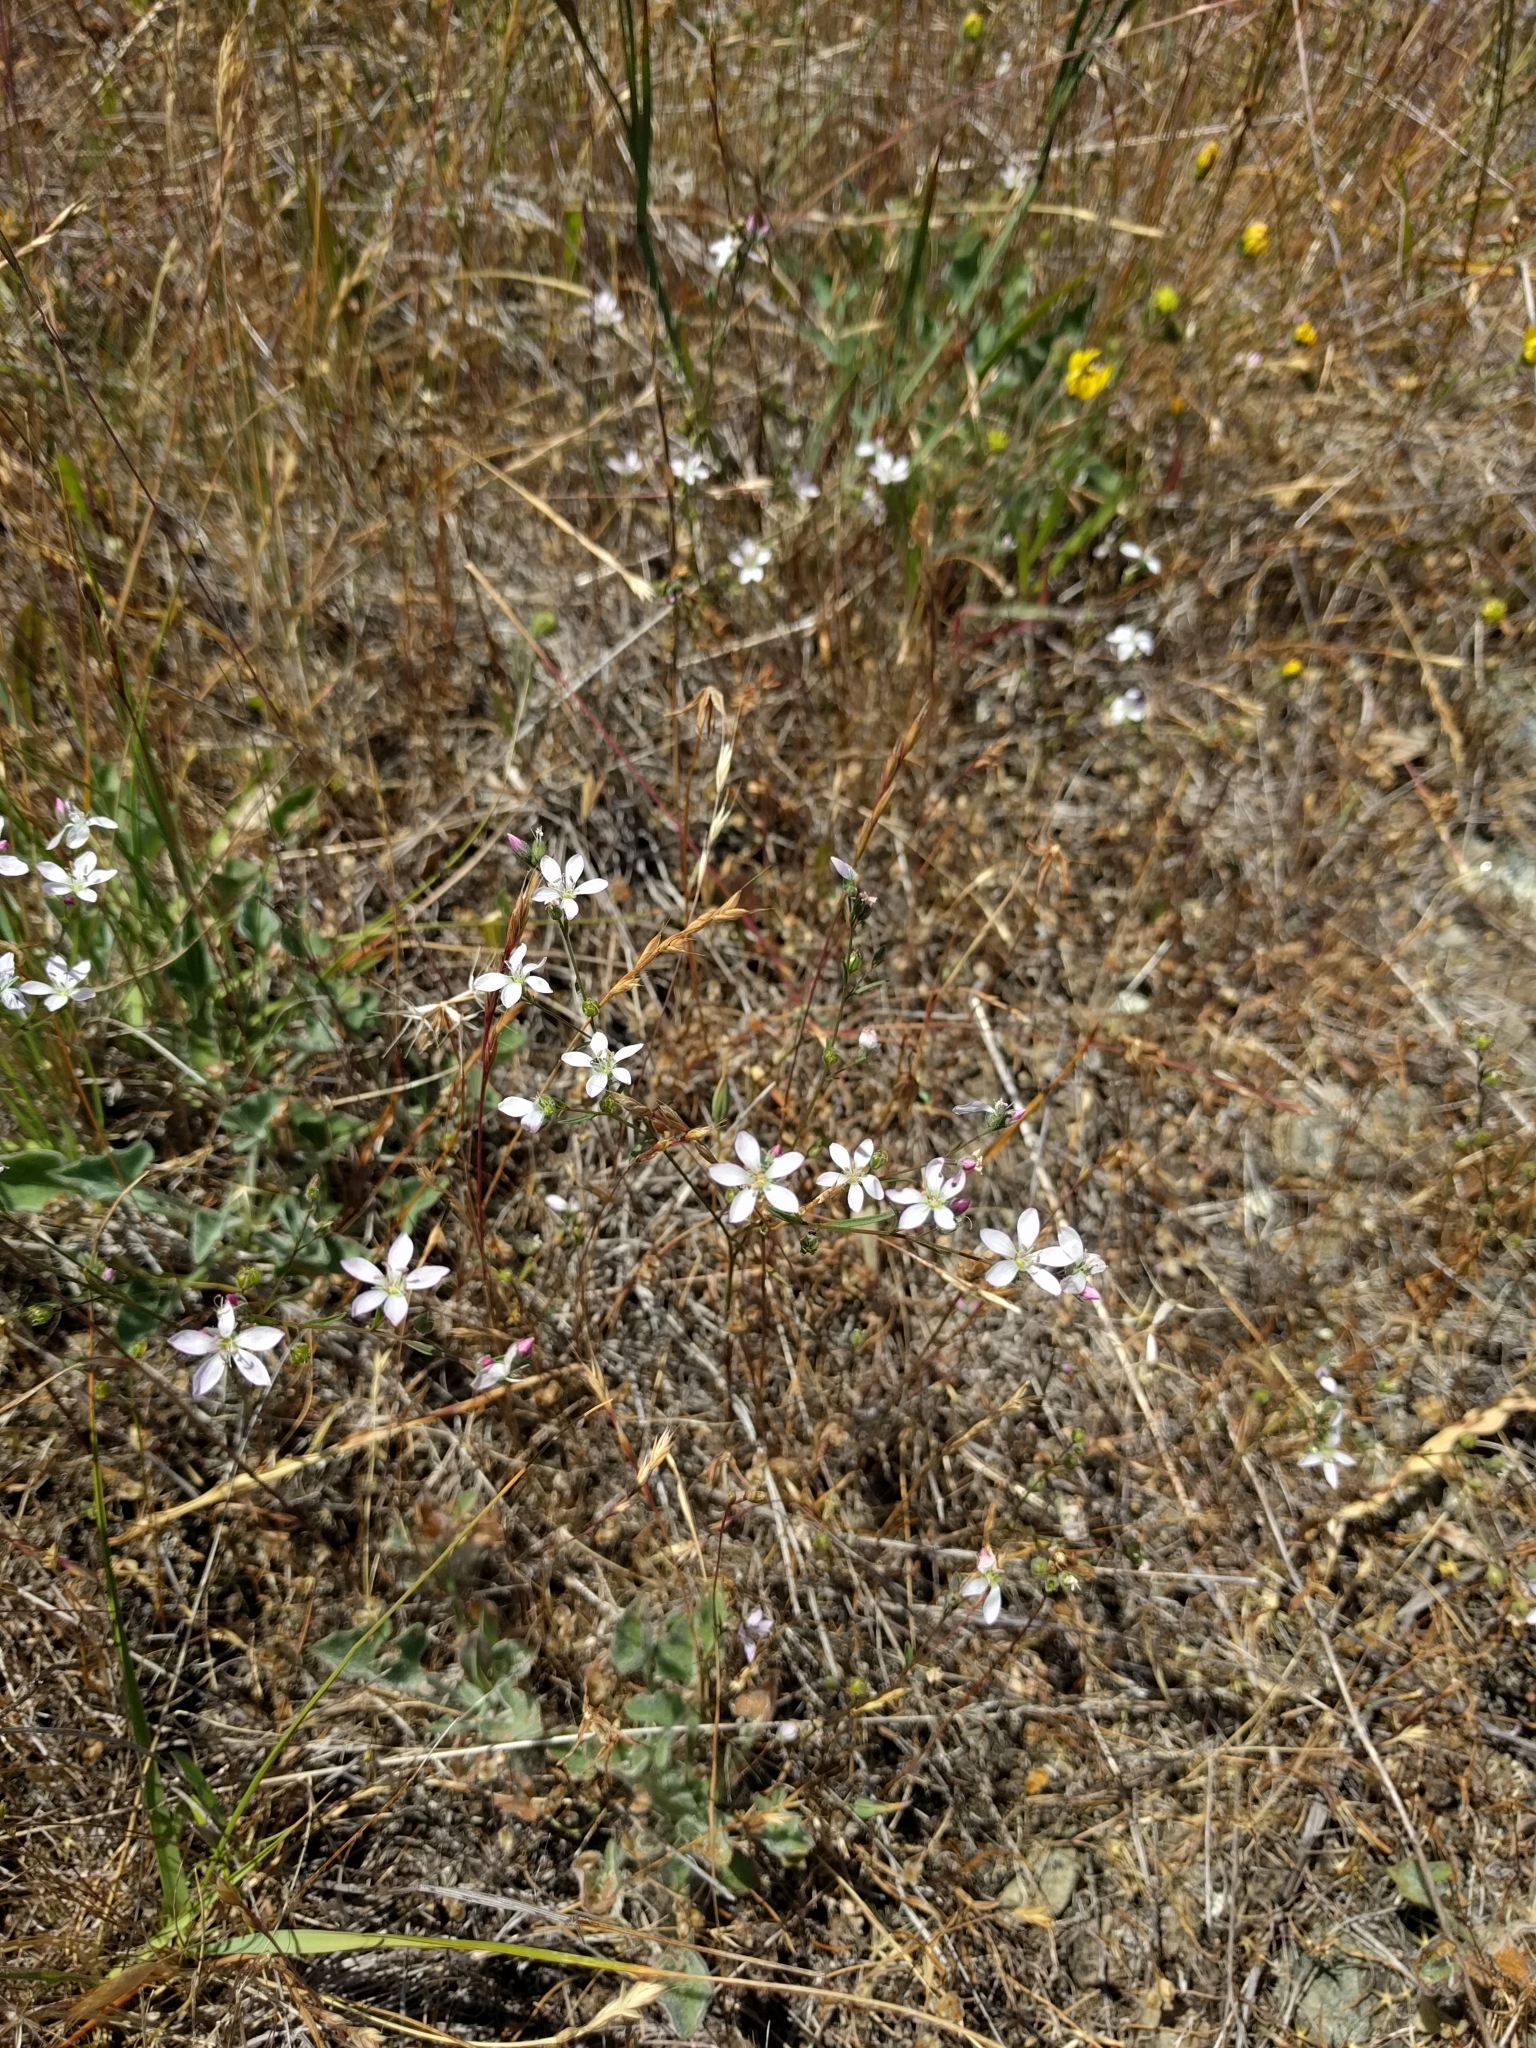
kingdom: Plantae
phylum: Tracheophyta
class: Magnoliopsida
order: Malpighiales
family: Linaceae
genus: Hesperolinon
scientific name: Hesperolinon congestum
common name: Marin dwarf-flax
